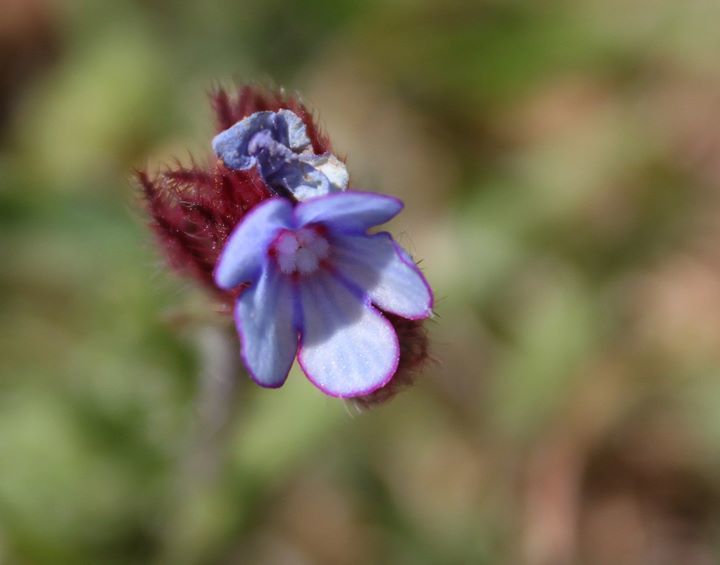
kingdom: Plantae
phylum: Tracheophyta
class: Magnoliopsida
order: Boraginales
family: Boraginaceae
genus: Anchusella
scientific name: Anchusella cretica
